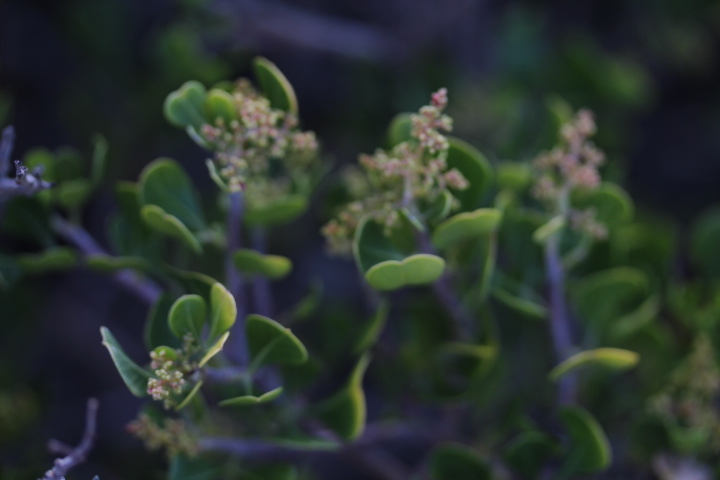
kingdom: Plantae
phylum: Tracheophyta
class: Magnoliopsida
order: Sapindales
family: Anacardiaceae
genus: Searsia
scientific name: Searsia glauca
